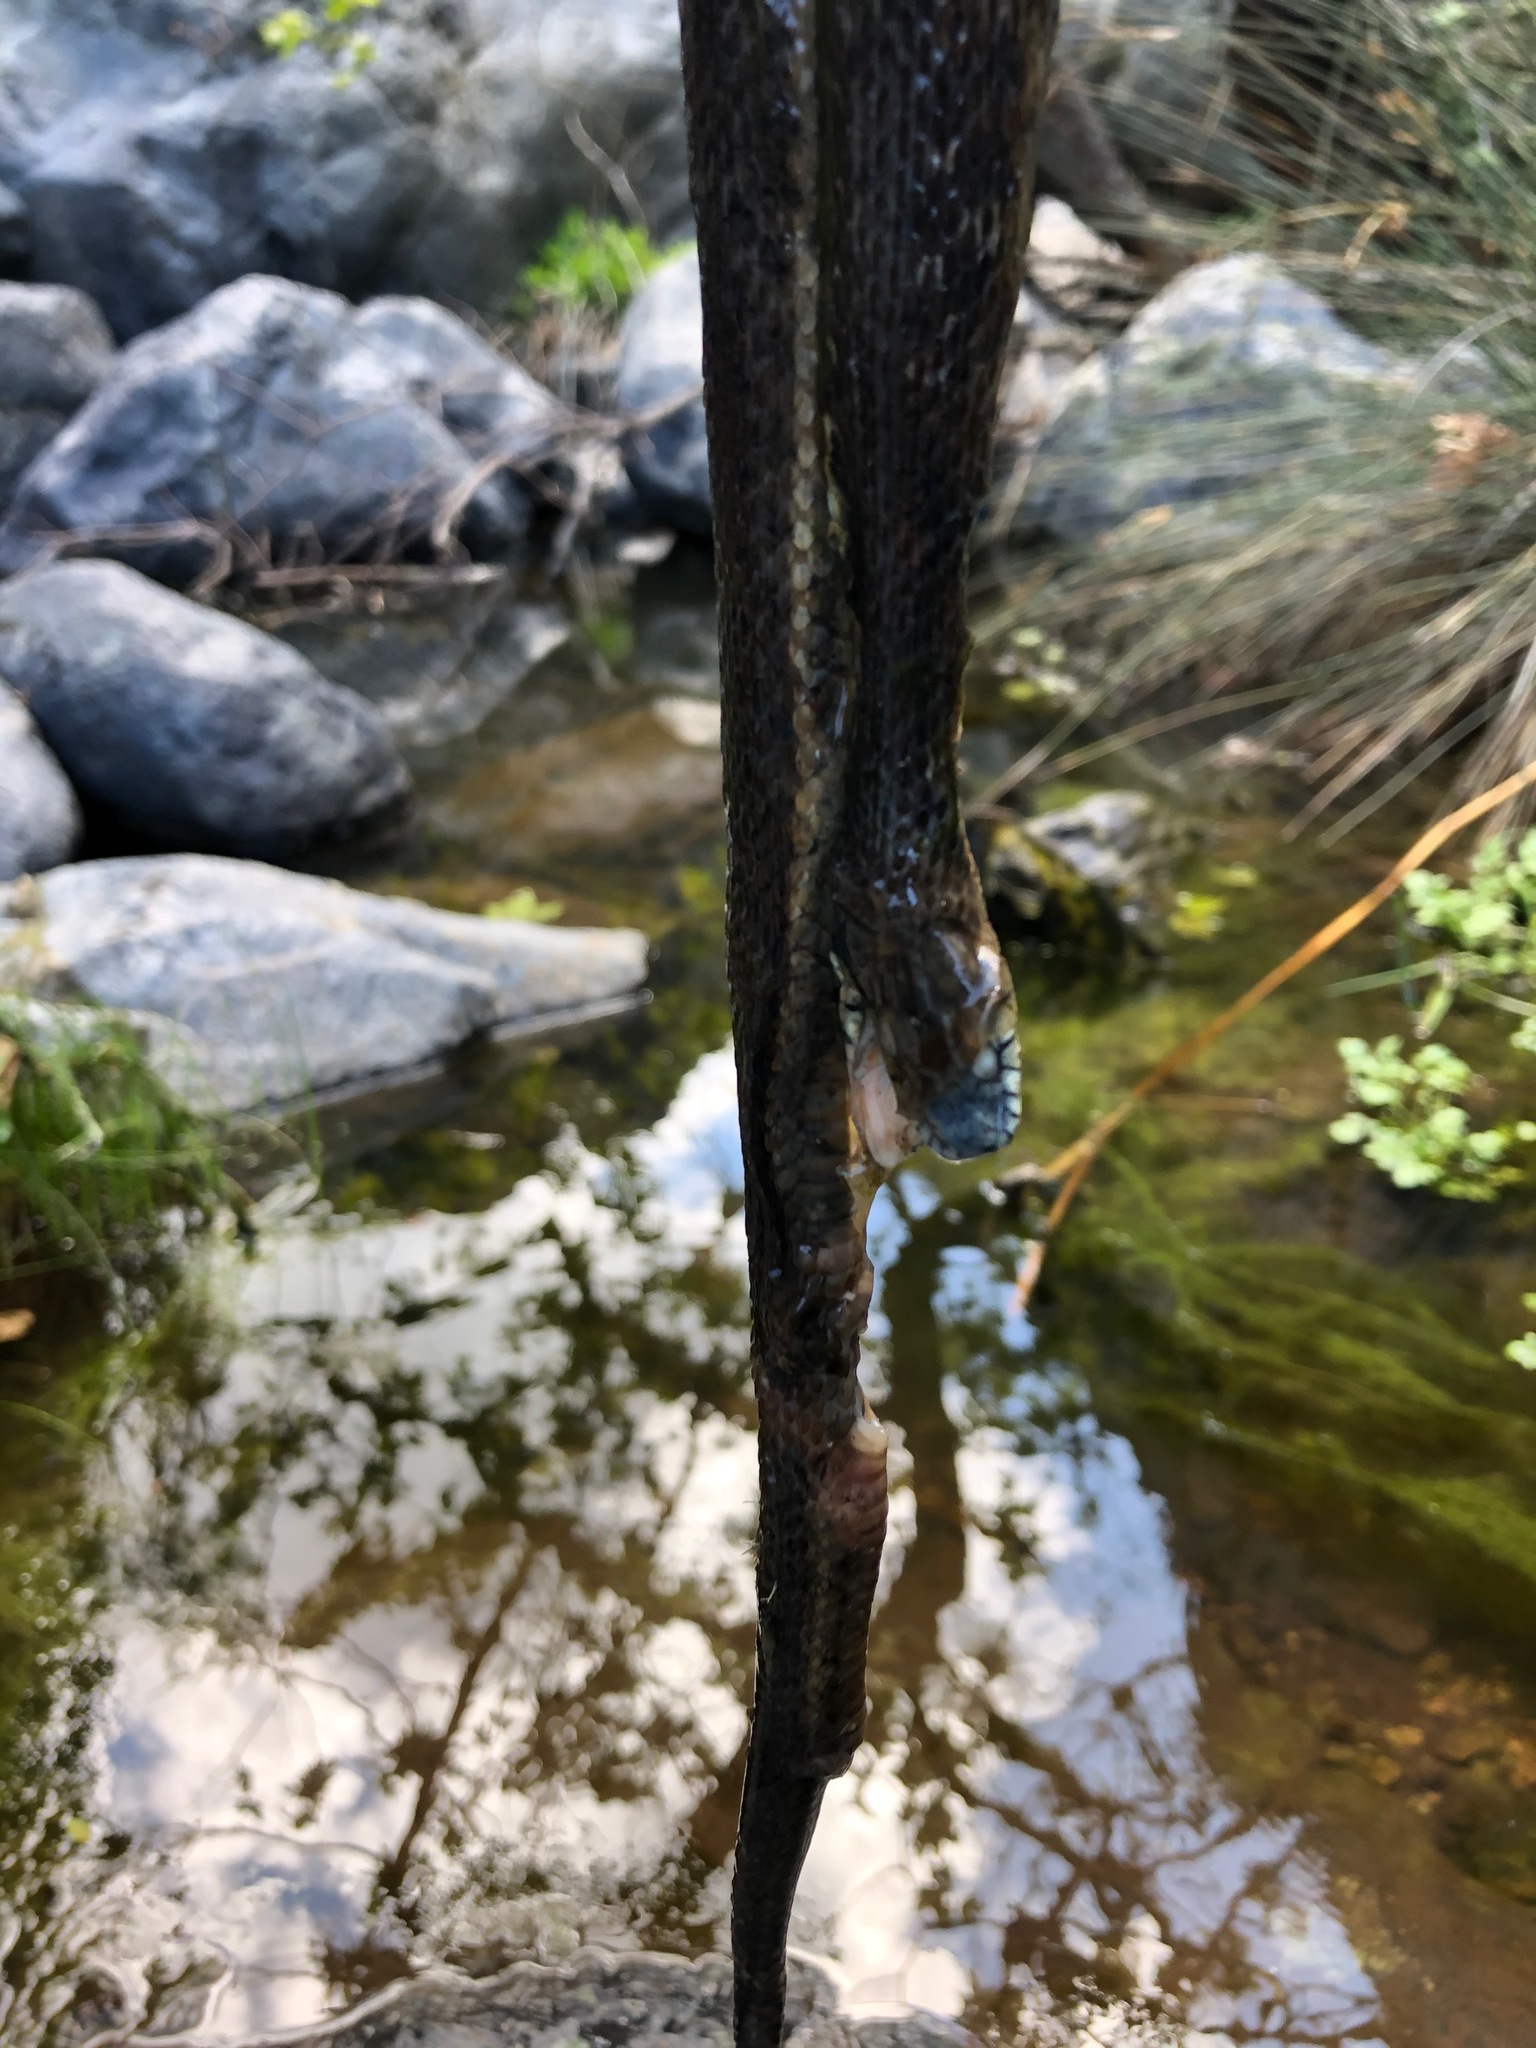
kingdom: Animalia
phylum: Chordata
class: Squamata
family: Colubridae
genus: Thamnophis
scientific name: Thamnophis hammondii
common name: Two-striped garter snake
